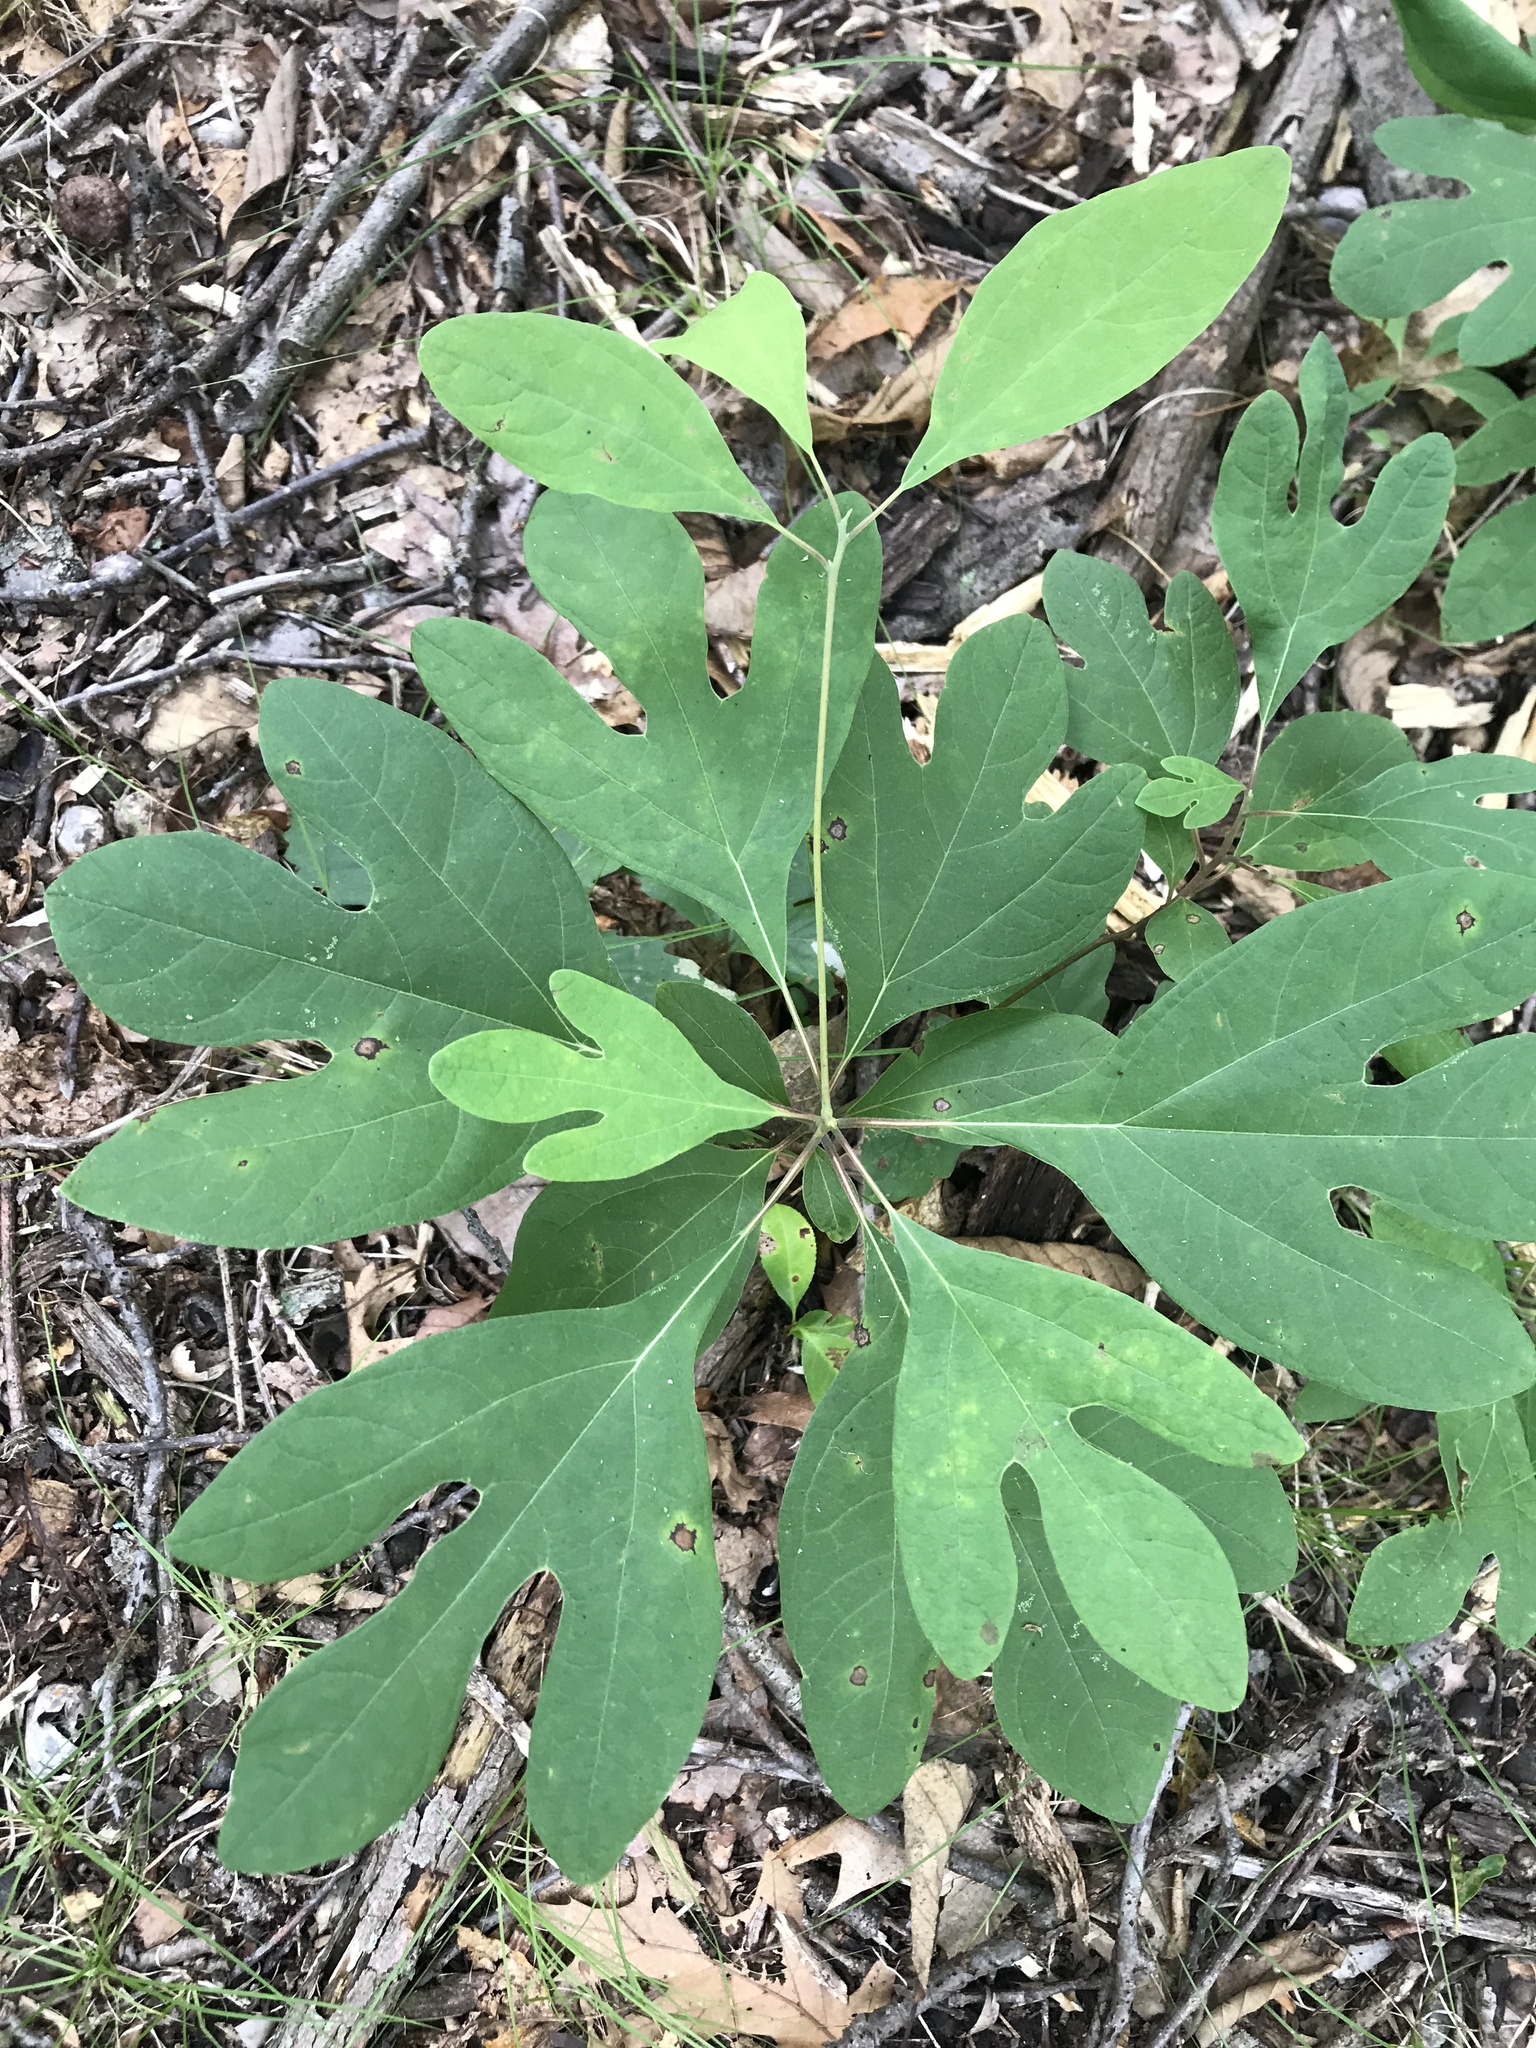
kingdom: Plantae
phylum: Tracheophyta
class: Magnoliopsida
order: Laurales
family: Lauraceae
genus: Sassafras
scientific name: Sassafras albidum
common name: Sassafras
